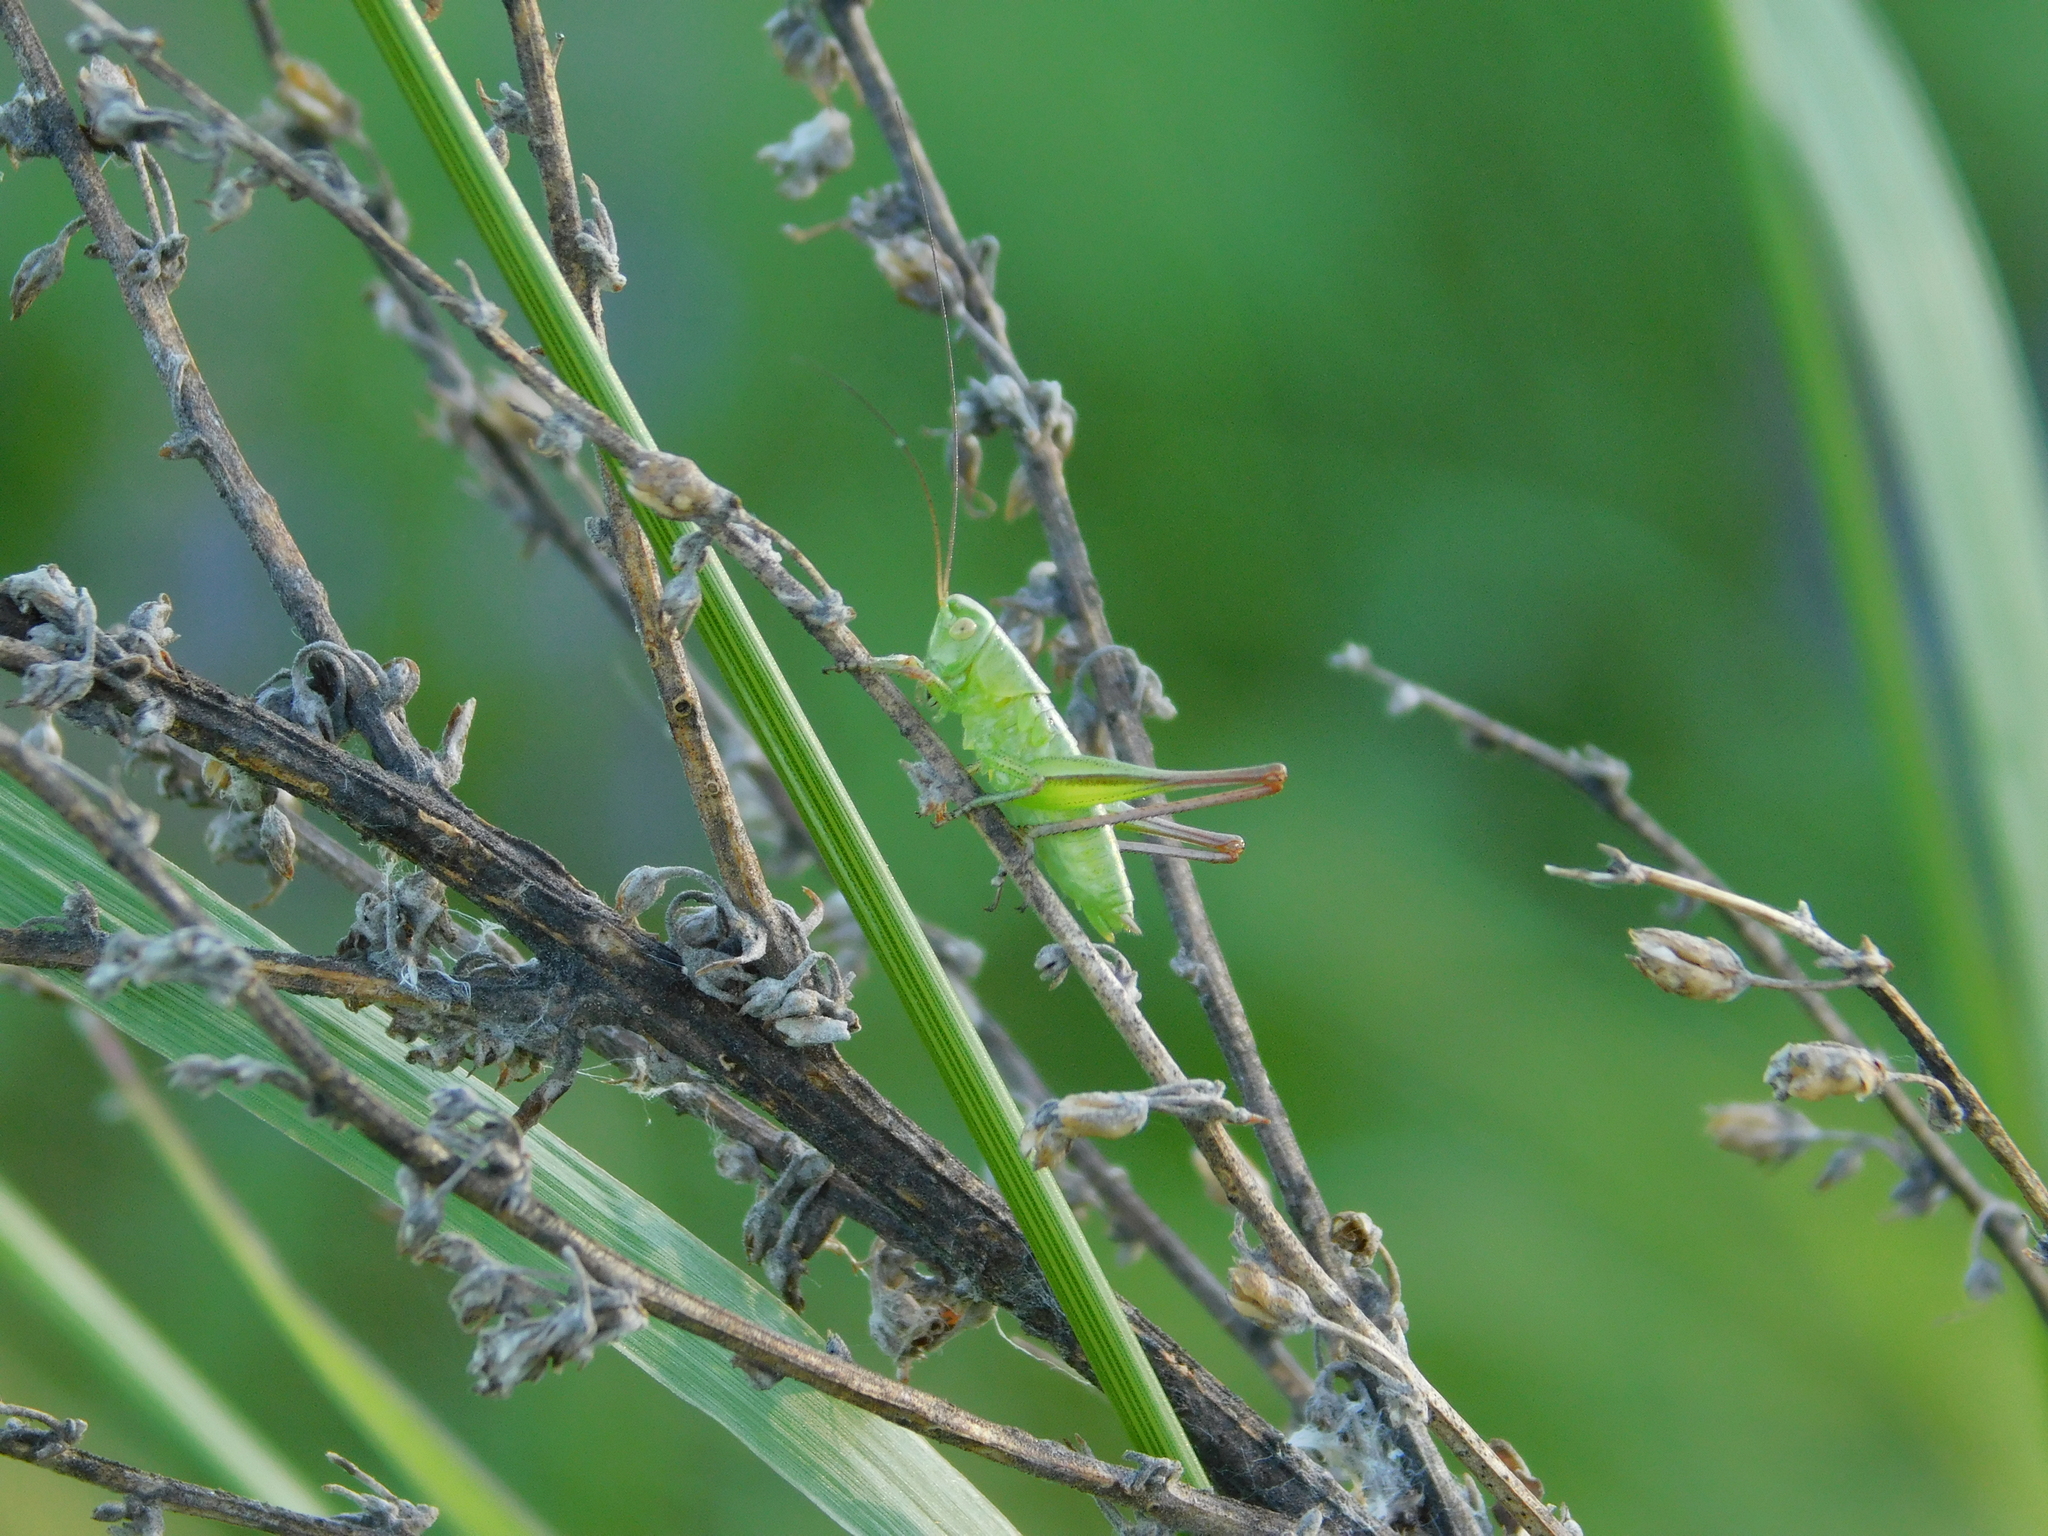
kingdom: Animalia
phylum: Arthropoda
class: Insecta
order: Orthoptera
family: Tettigoniidae
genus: Bicolorana
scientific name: Bicolorana bicolor
